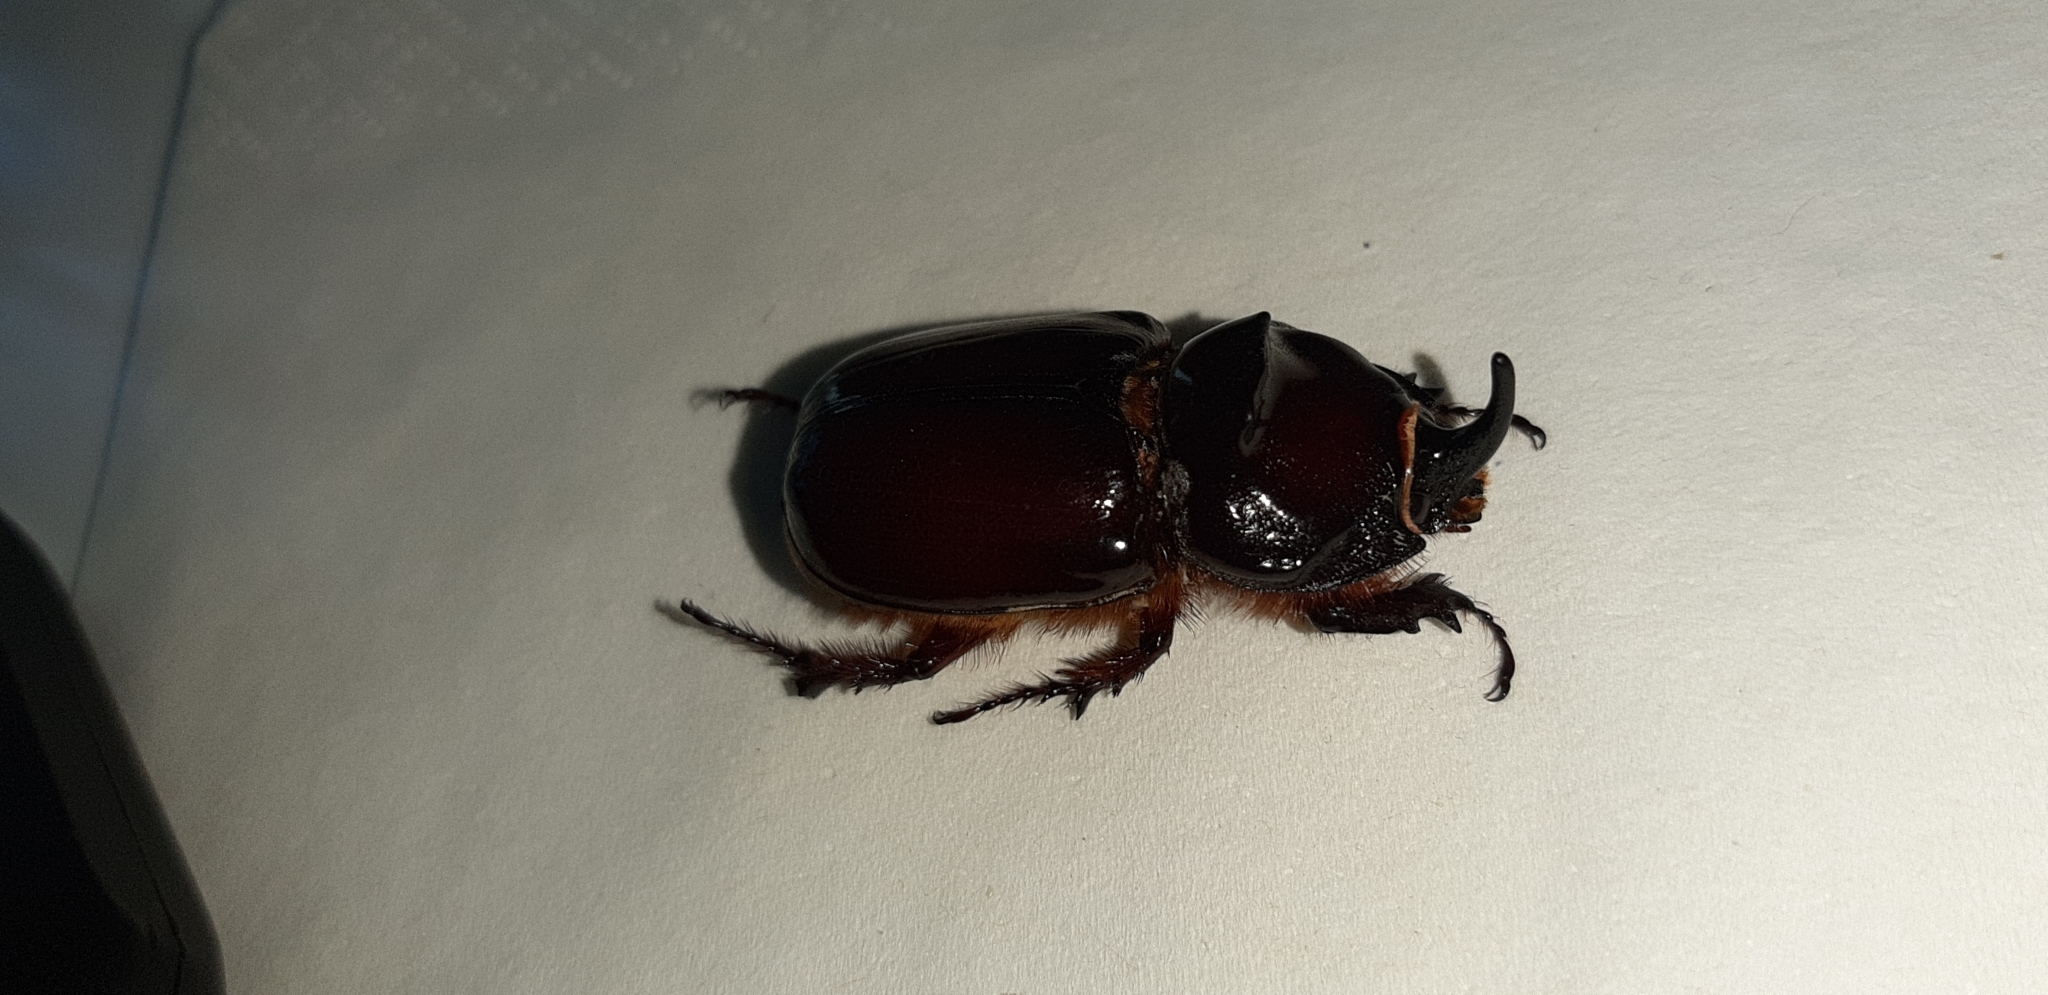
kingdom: Animalia
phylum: Arthropoda
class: Insecta
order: Coleoptera
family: Scarabaeidae
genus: Oryctes
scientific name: Oryctes nasicornis
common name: European rhinoceros beetle
